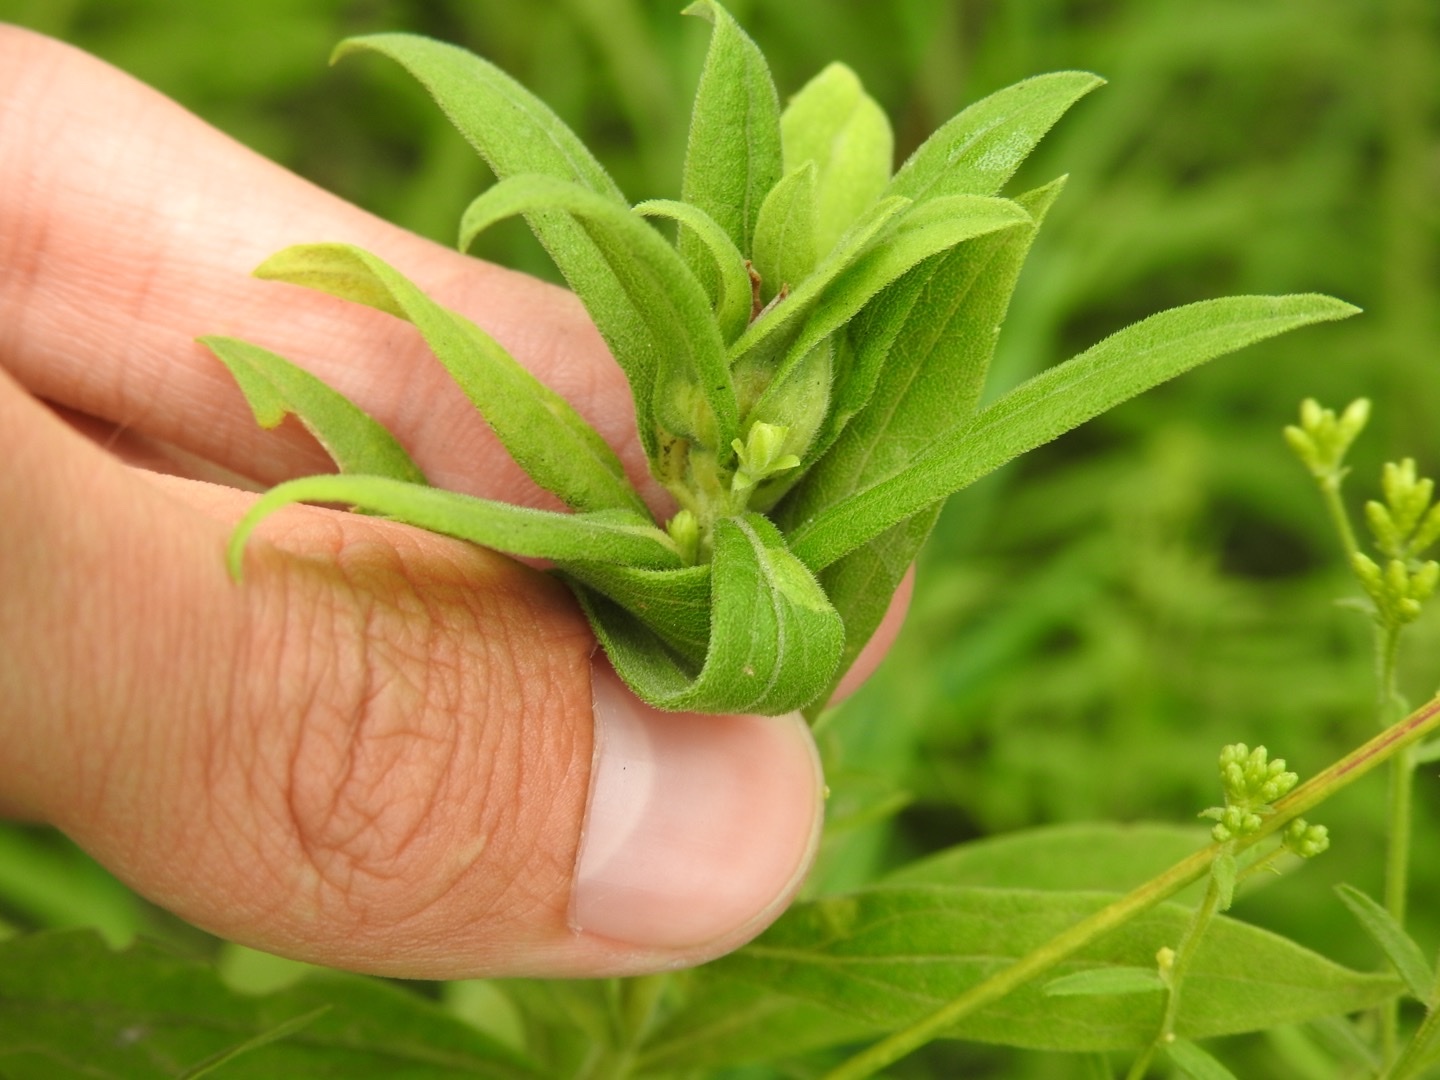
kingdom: Animalia
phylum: Arthropoda
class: Insecta
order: Diptera
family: Cecidomyiidae
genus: Dasineura
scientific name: Dasineura folliculi
